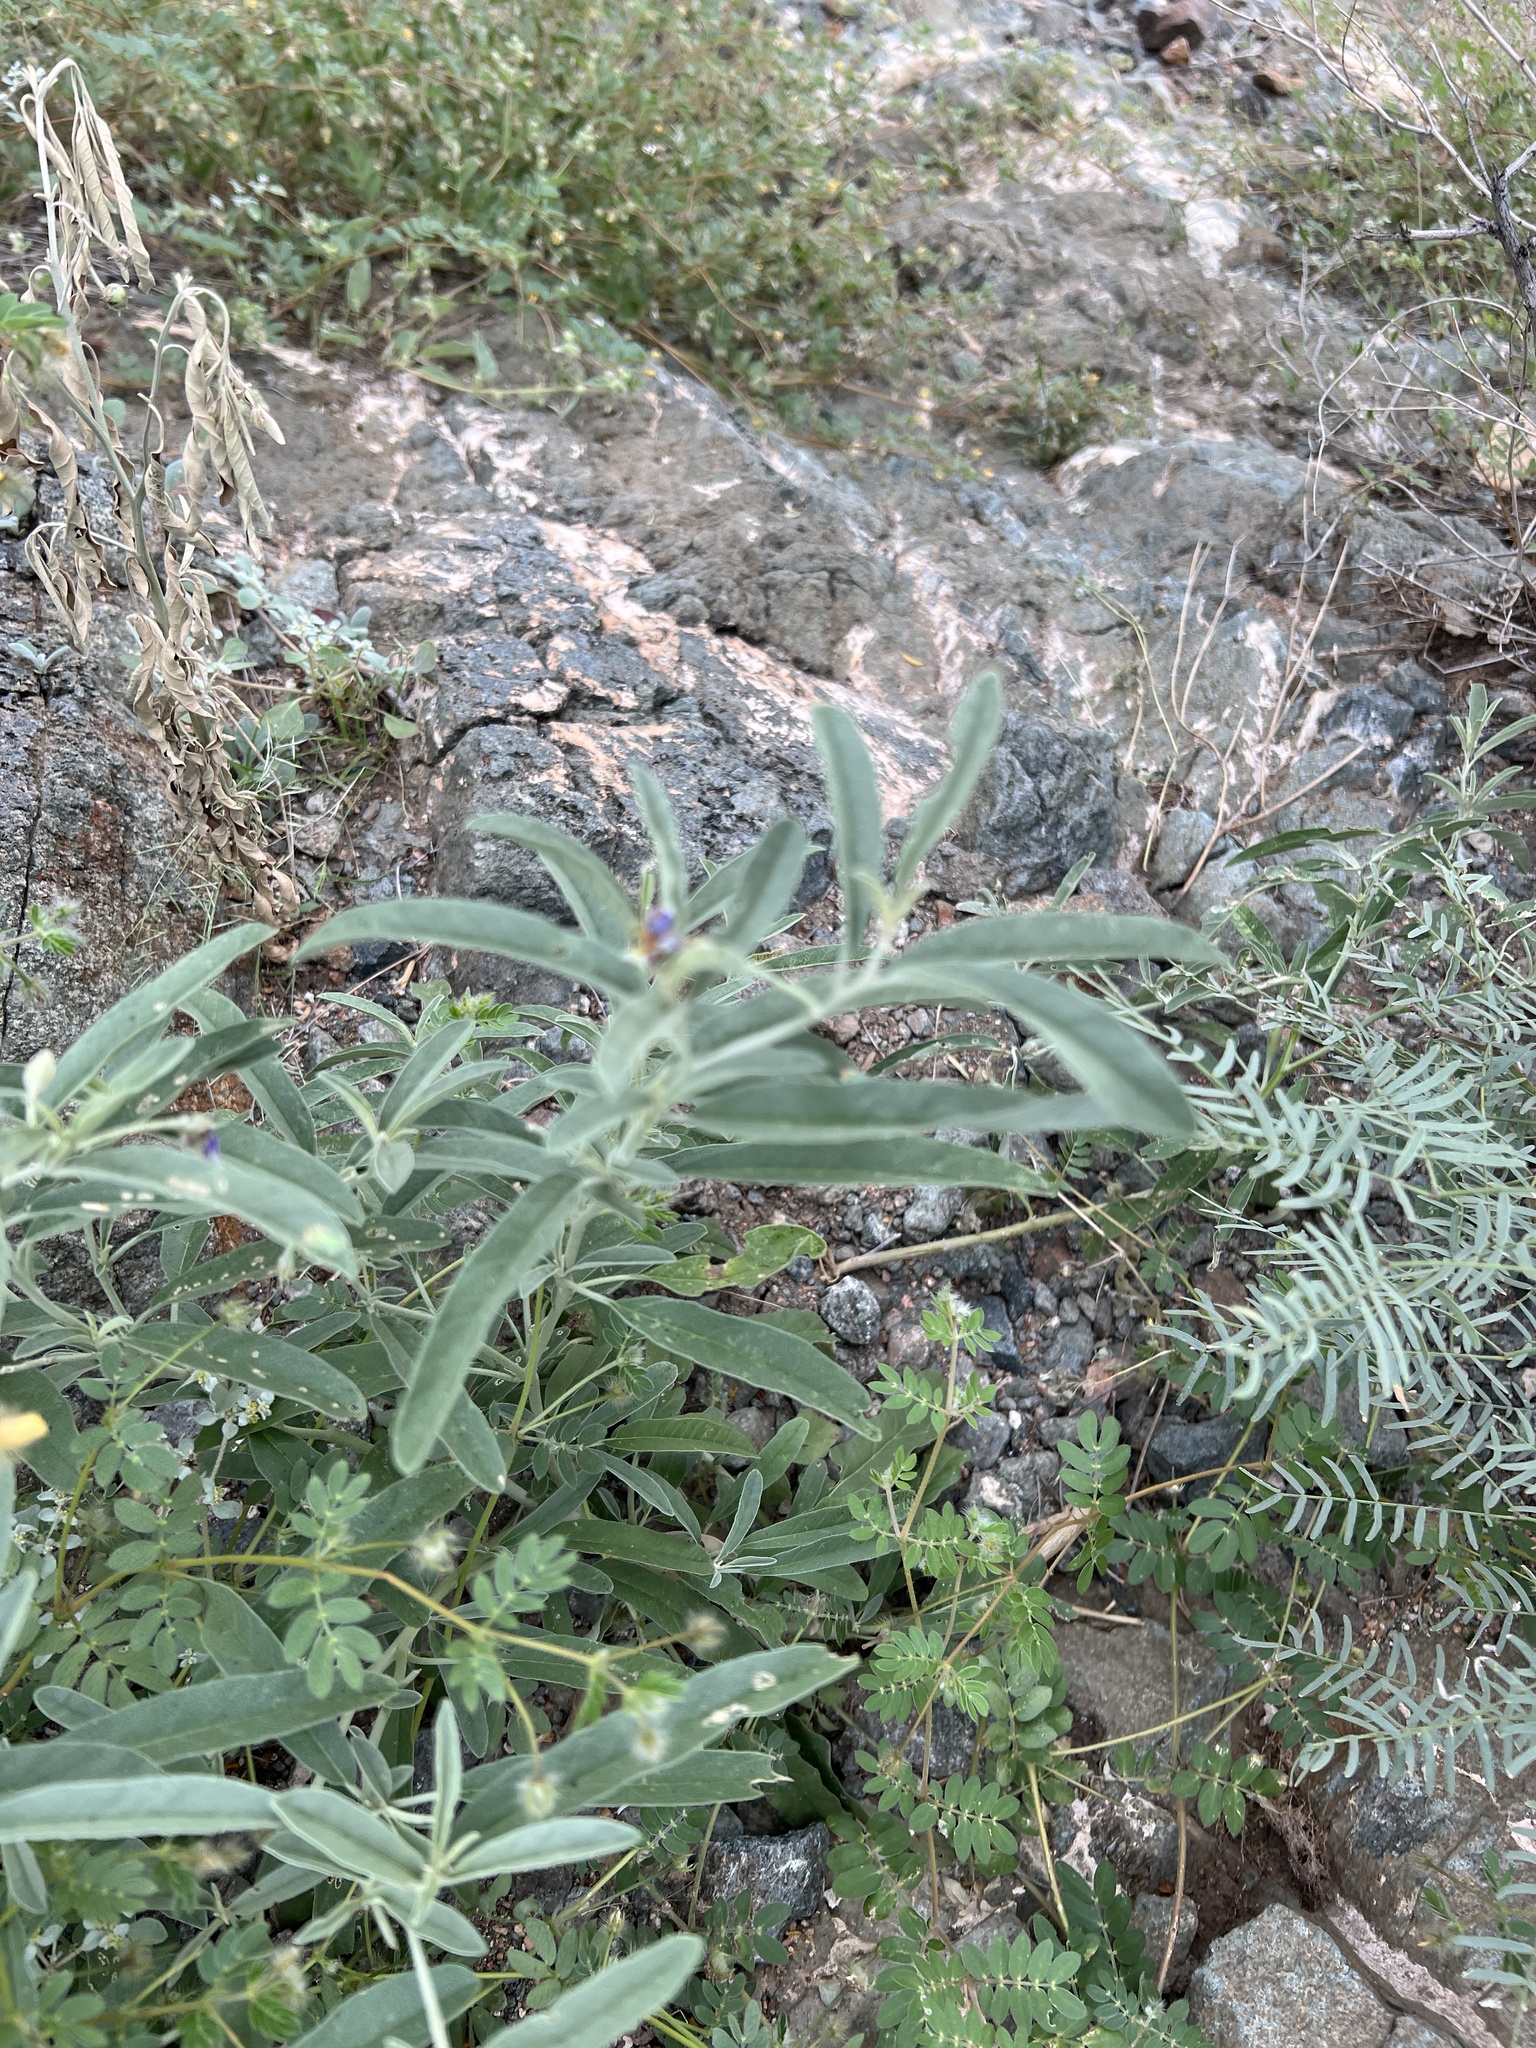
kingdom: Plantae
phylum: Tracheophyta
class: Magnoliopsida
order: Solanales
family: Solanaceae
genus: Solanum
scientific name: Solanum elaeagnifolium
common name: Silverleaf nightshade
